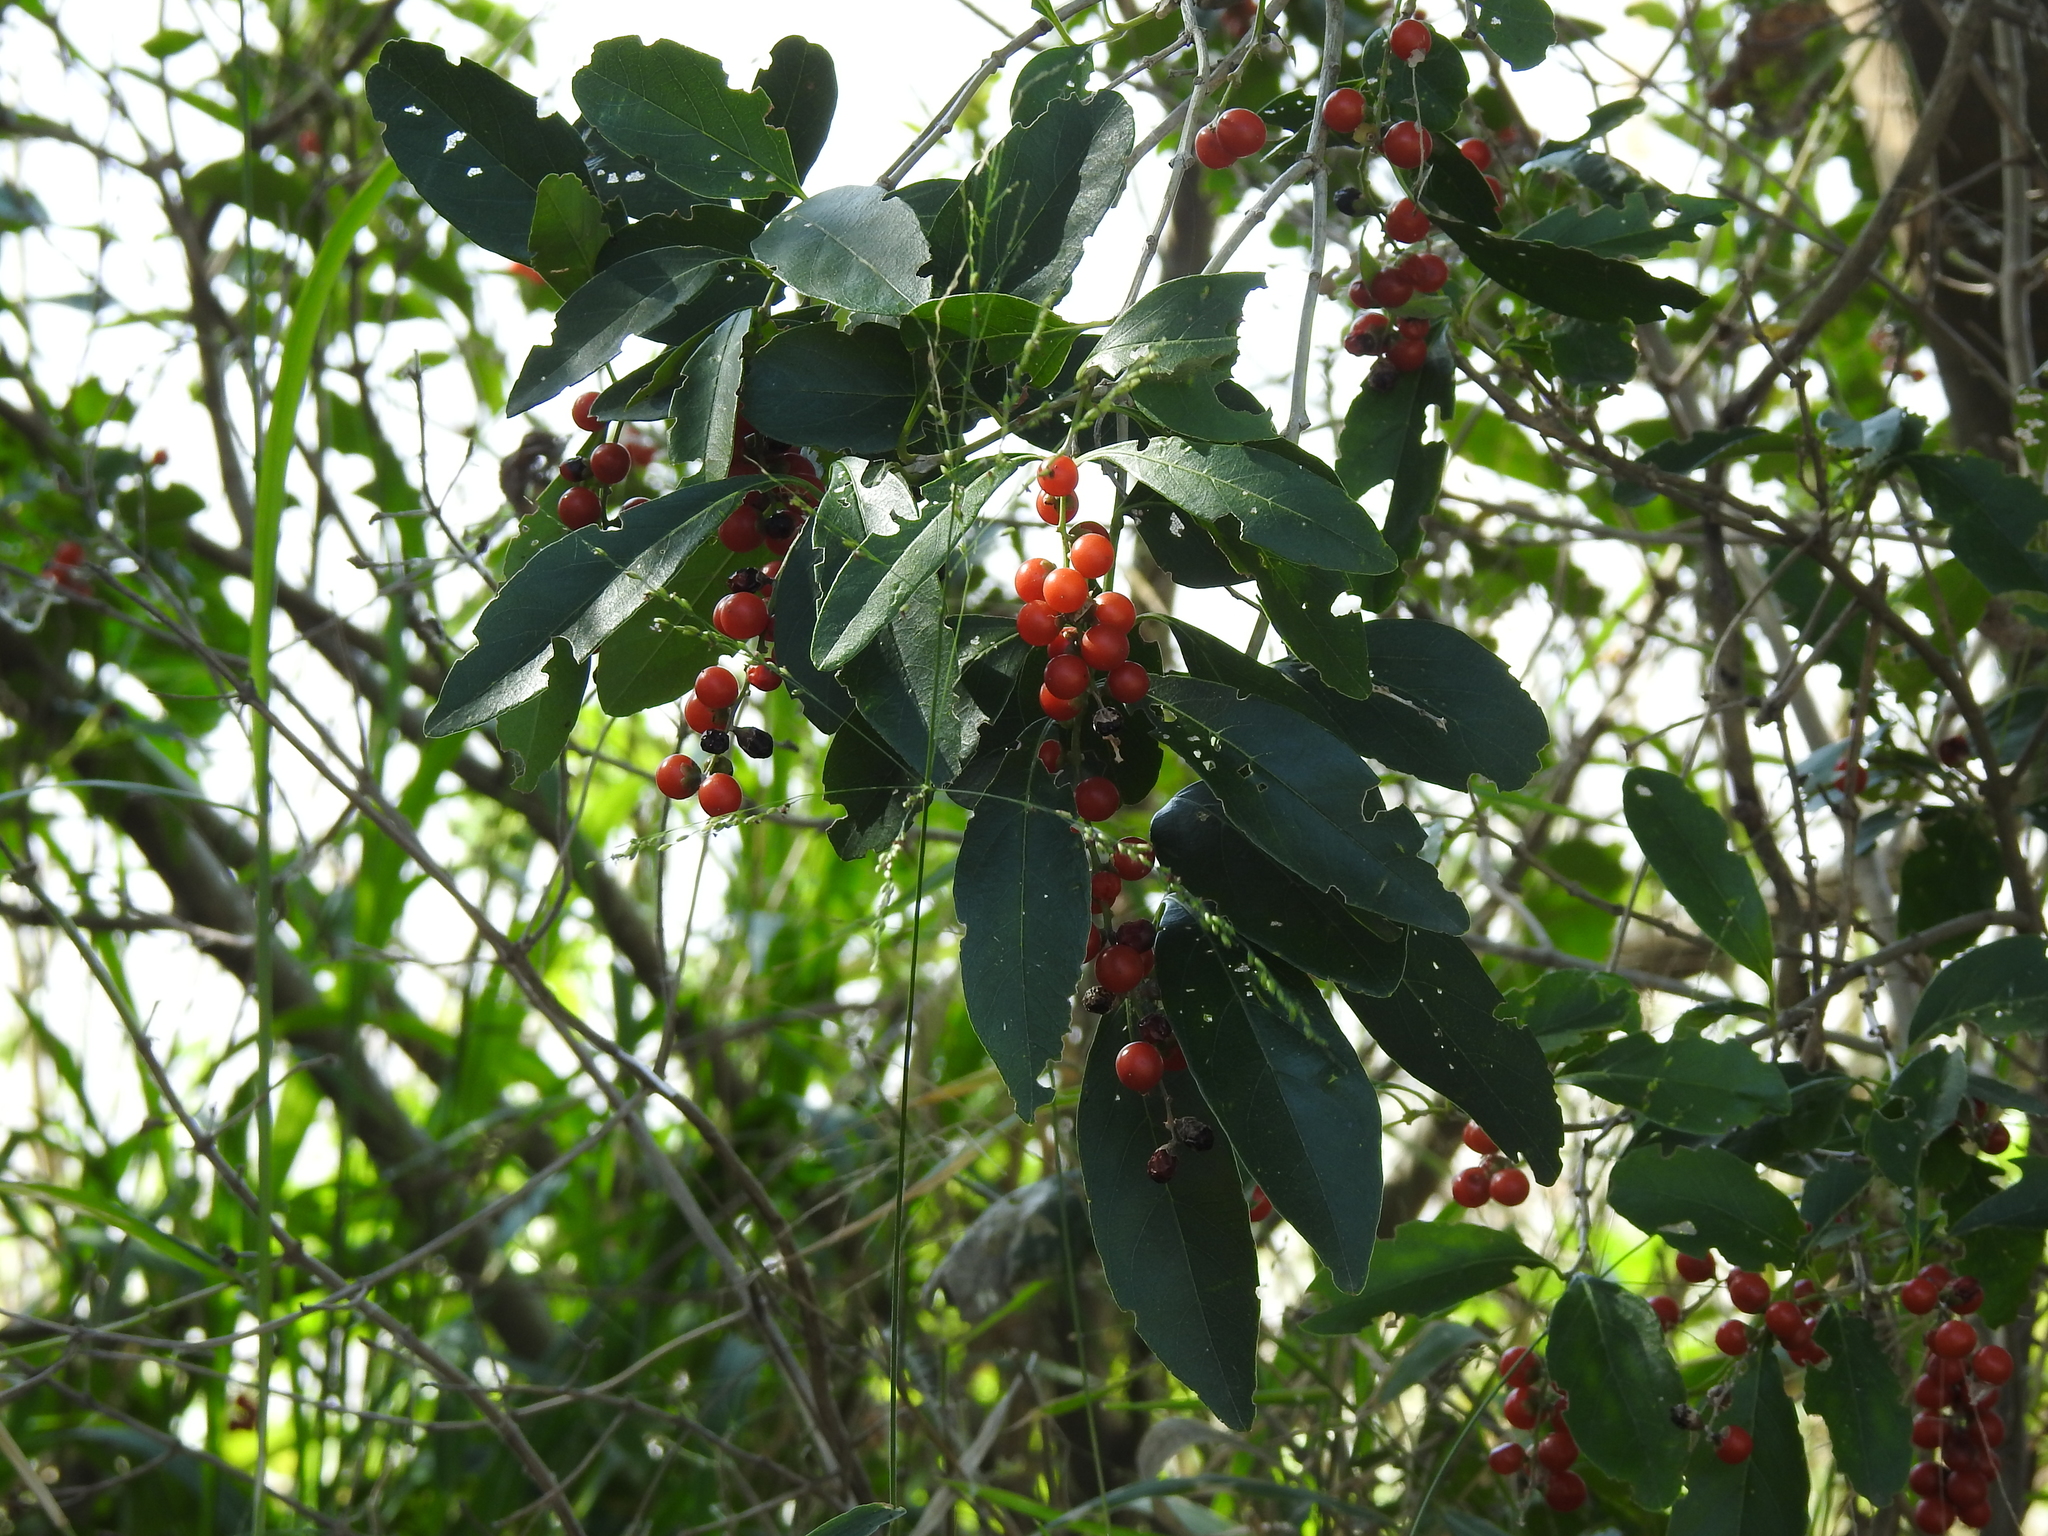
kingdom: Plantae
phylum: Tracheophyta
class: Magnoliopsida
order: Lamiales
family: Verbenaceae
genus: Citharexylum
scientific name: Citharexylum montevidense
